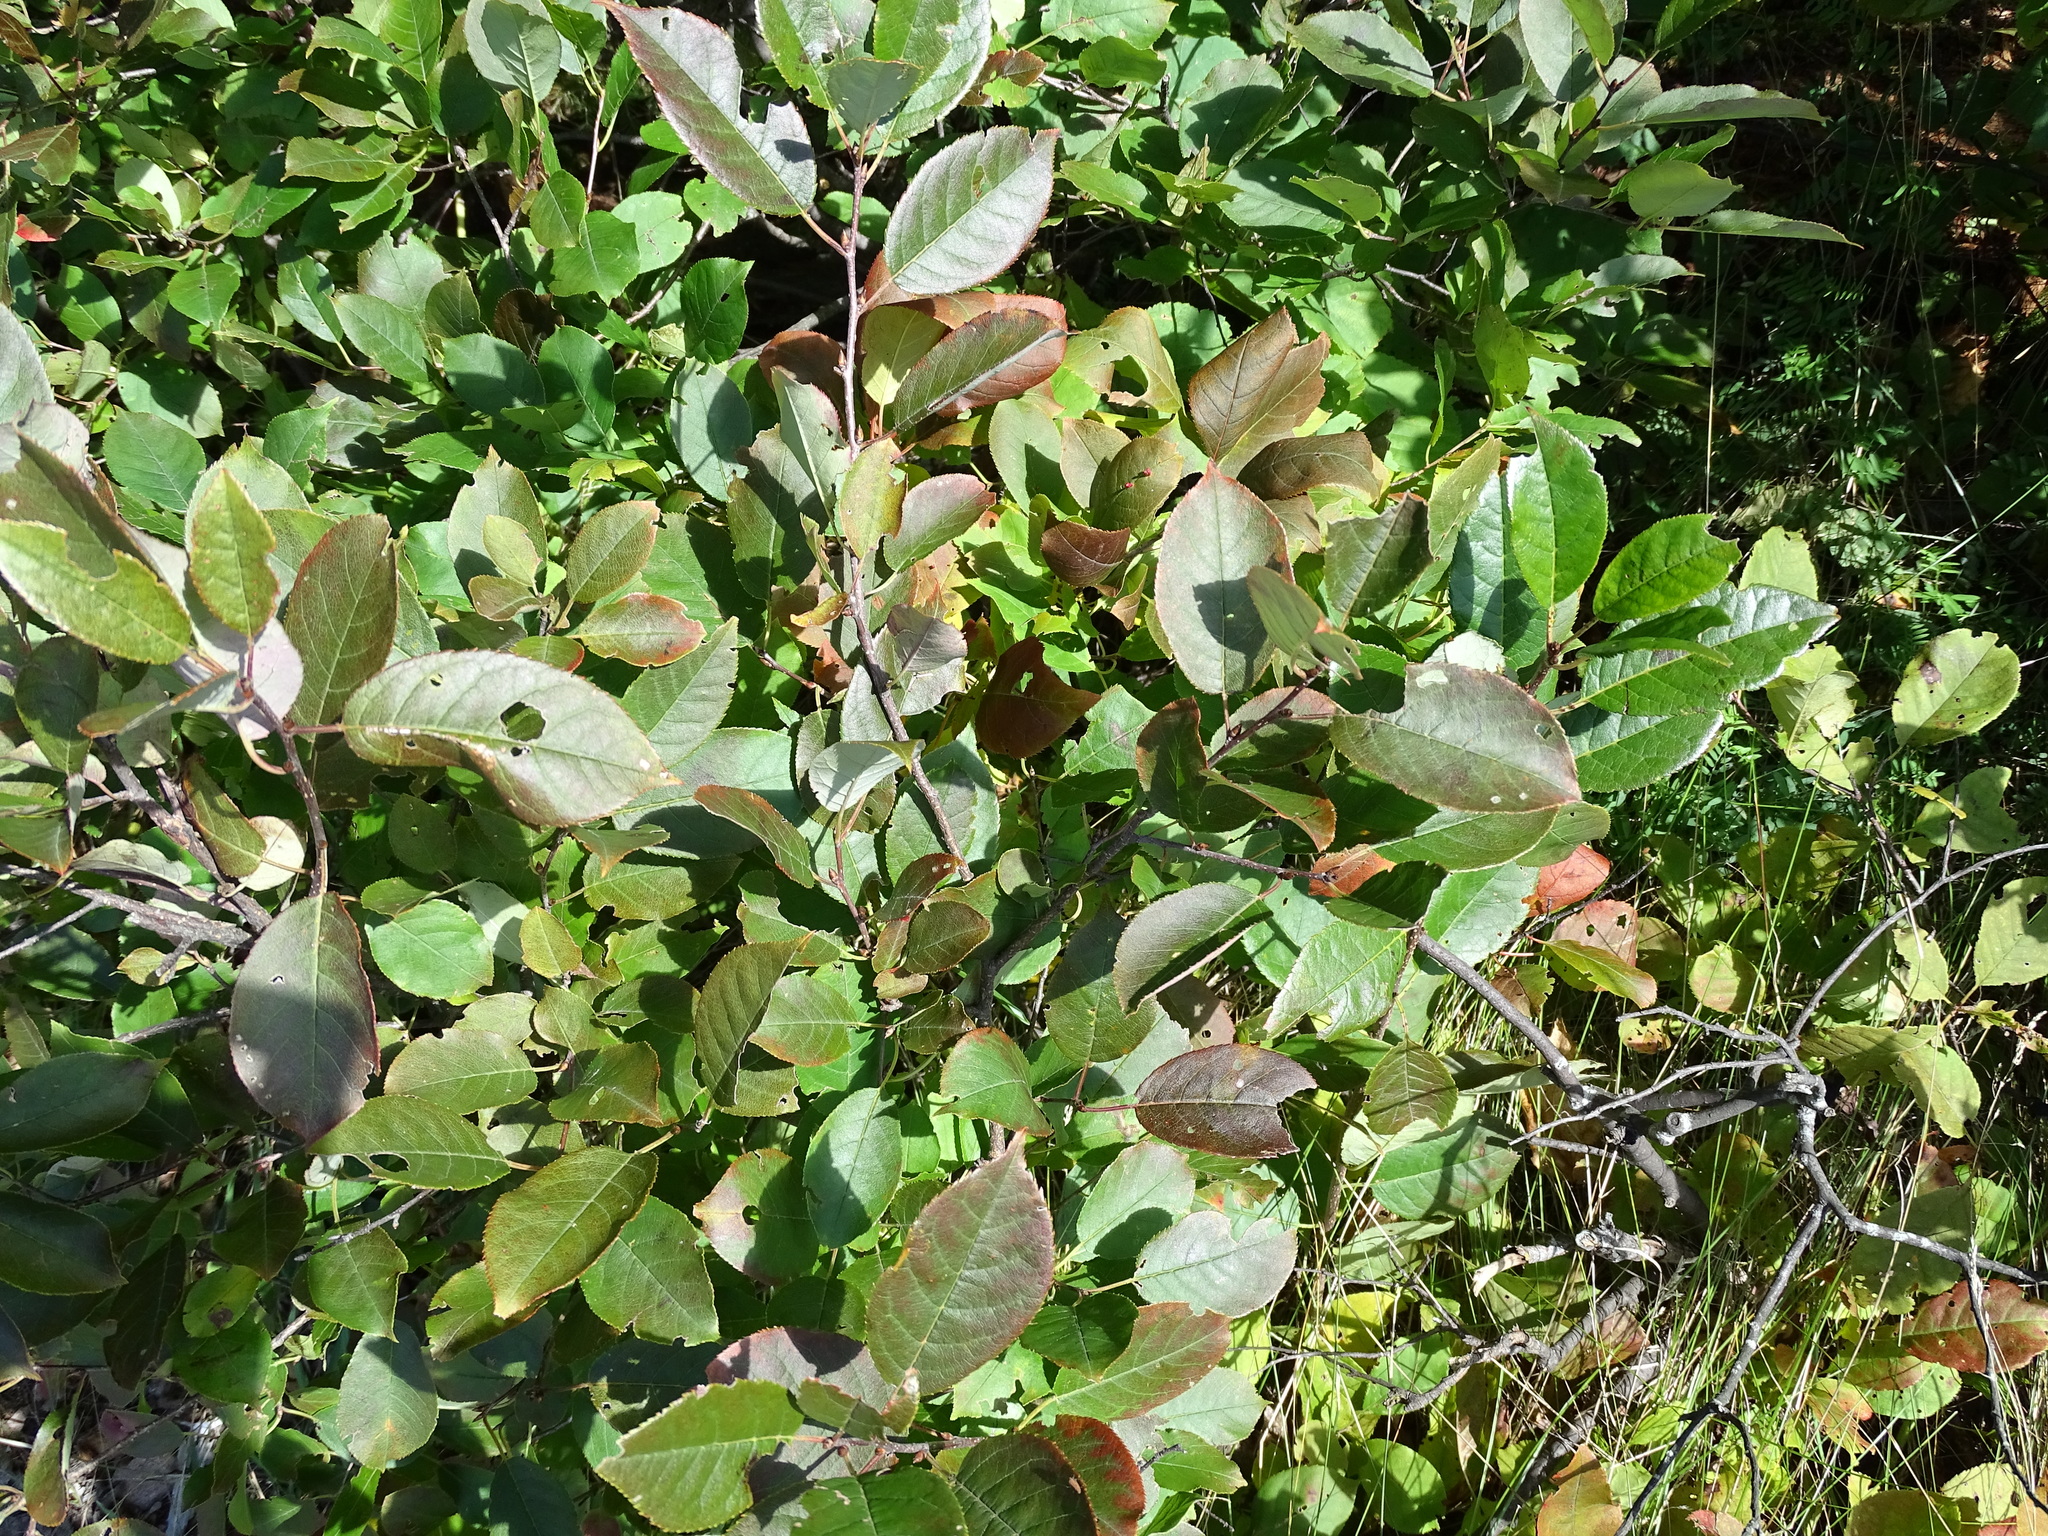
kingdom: Plantae
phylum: Tracheophyta
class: Magnoliopsida
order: Rosales
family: Rosaceae
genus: Prunus
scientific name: Prunus virginiana
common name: Chokecherry
